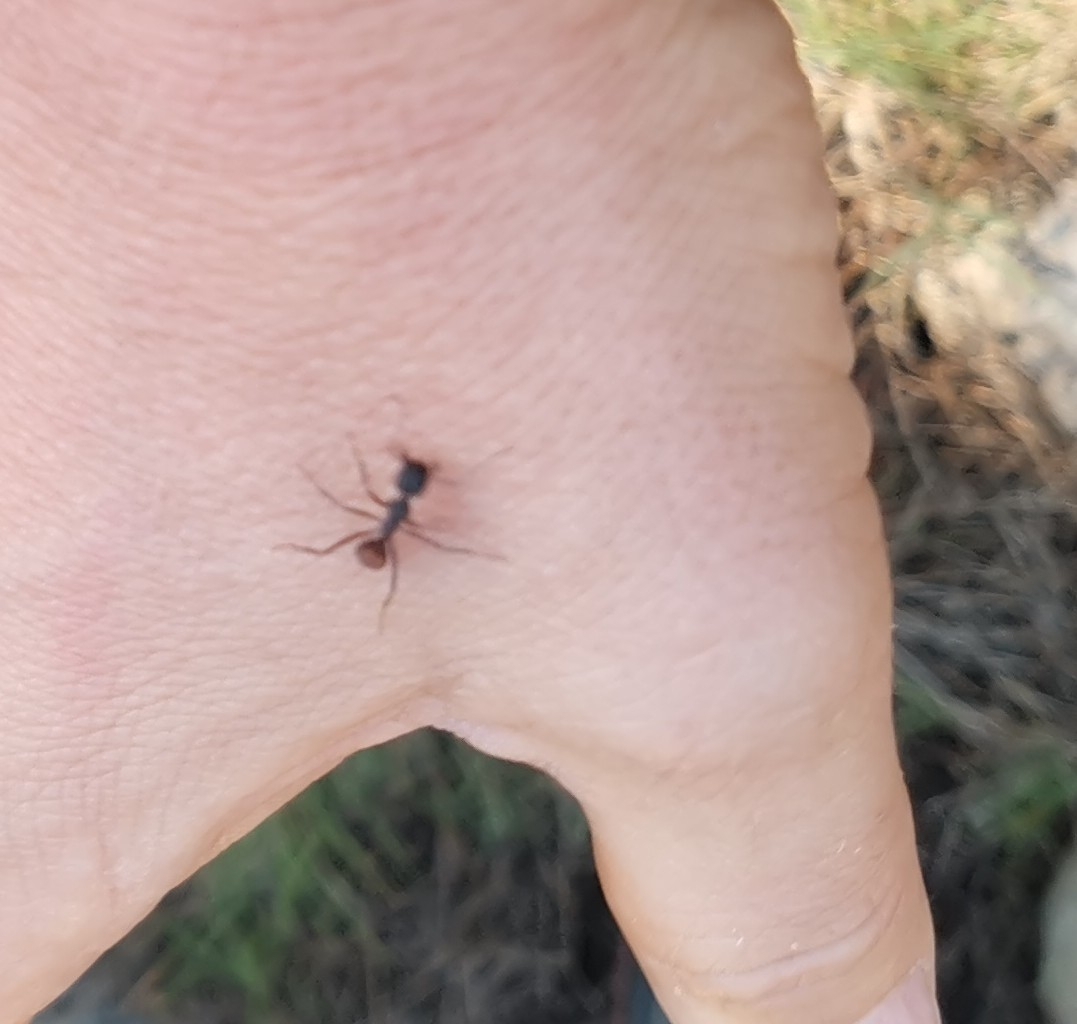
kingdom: Animalia
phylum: Arthropoda
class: Insecta
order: Hymenoptera
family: Formicidae
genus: Camponotus
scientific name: Camponotus cruentatus
